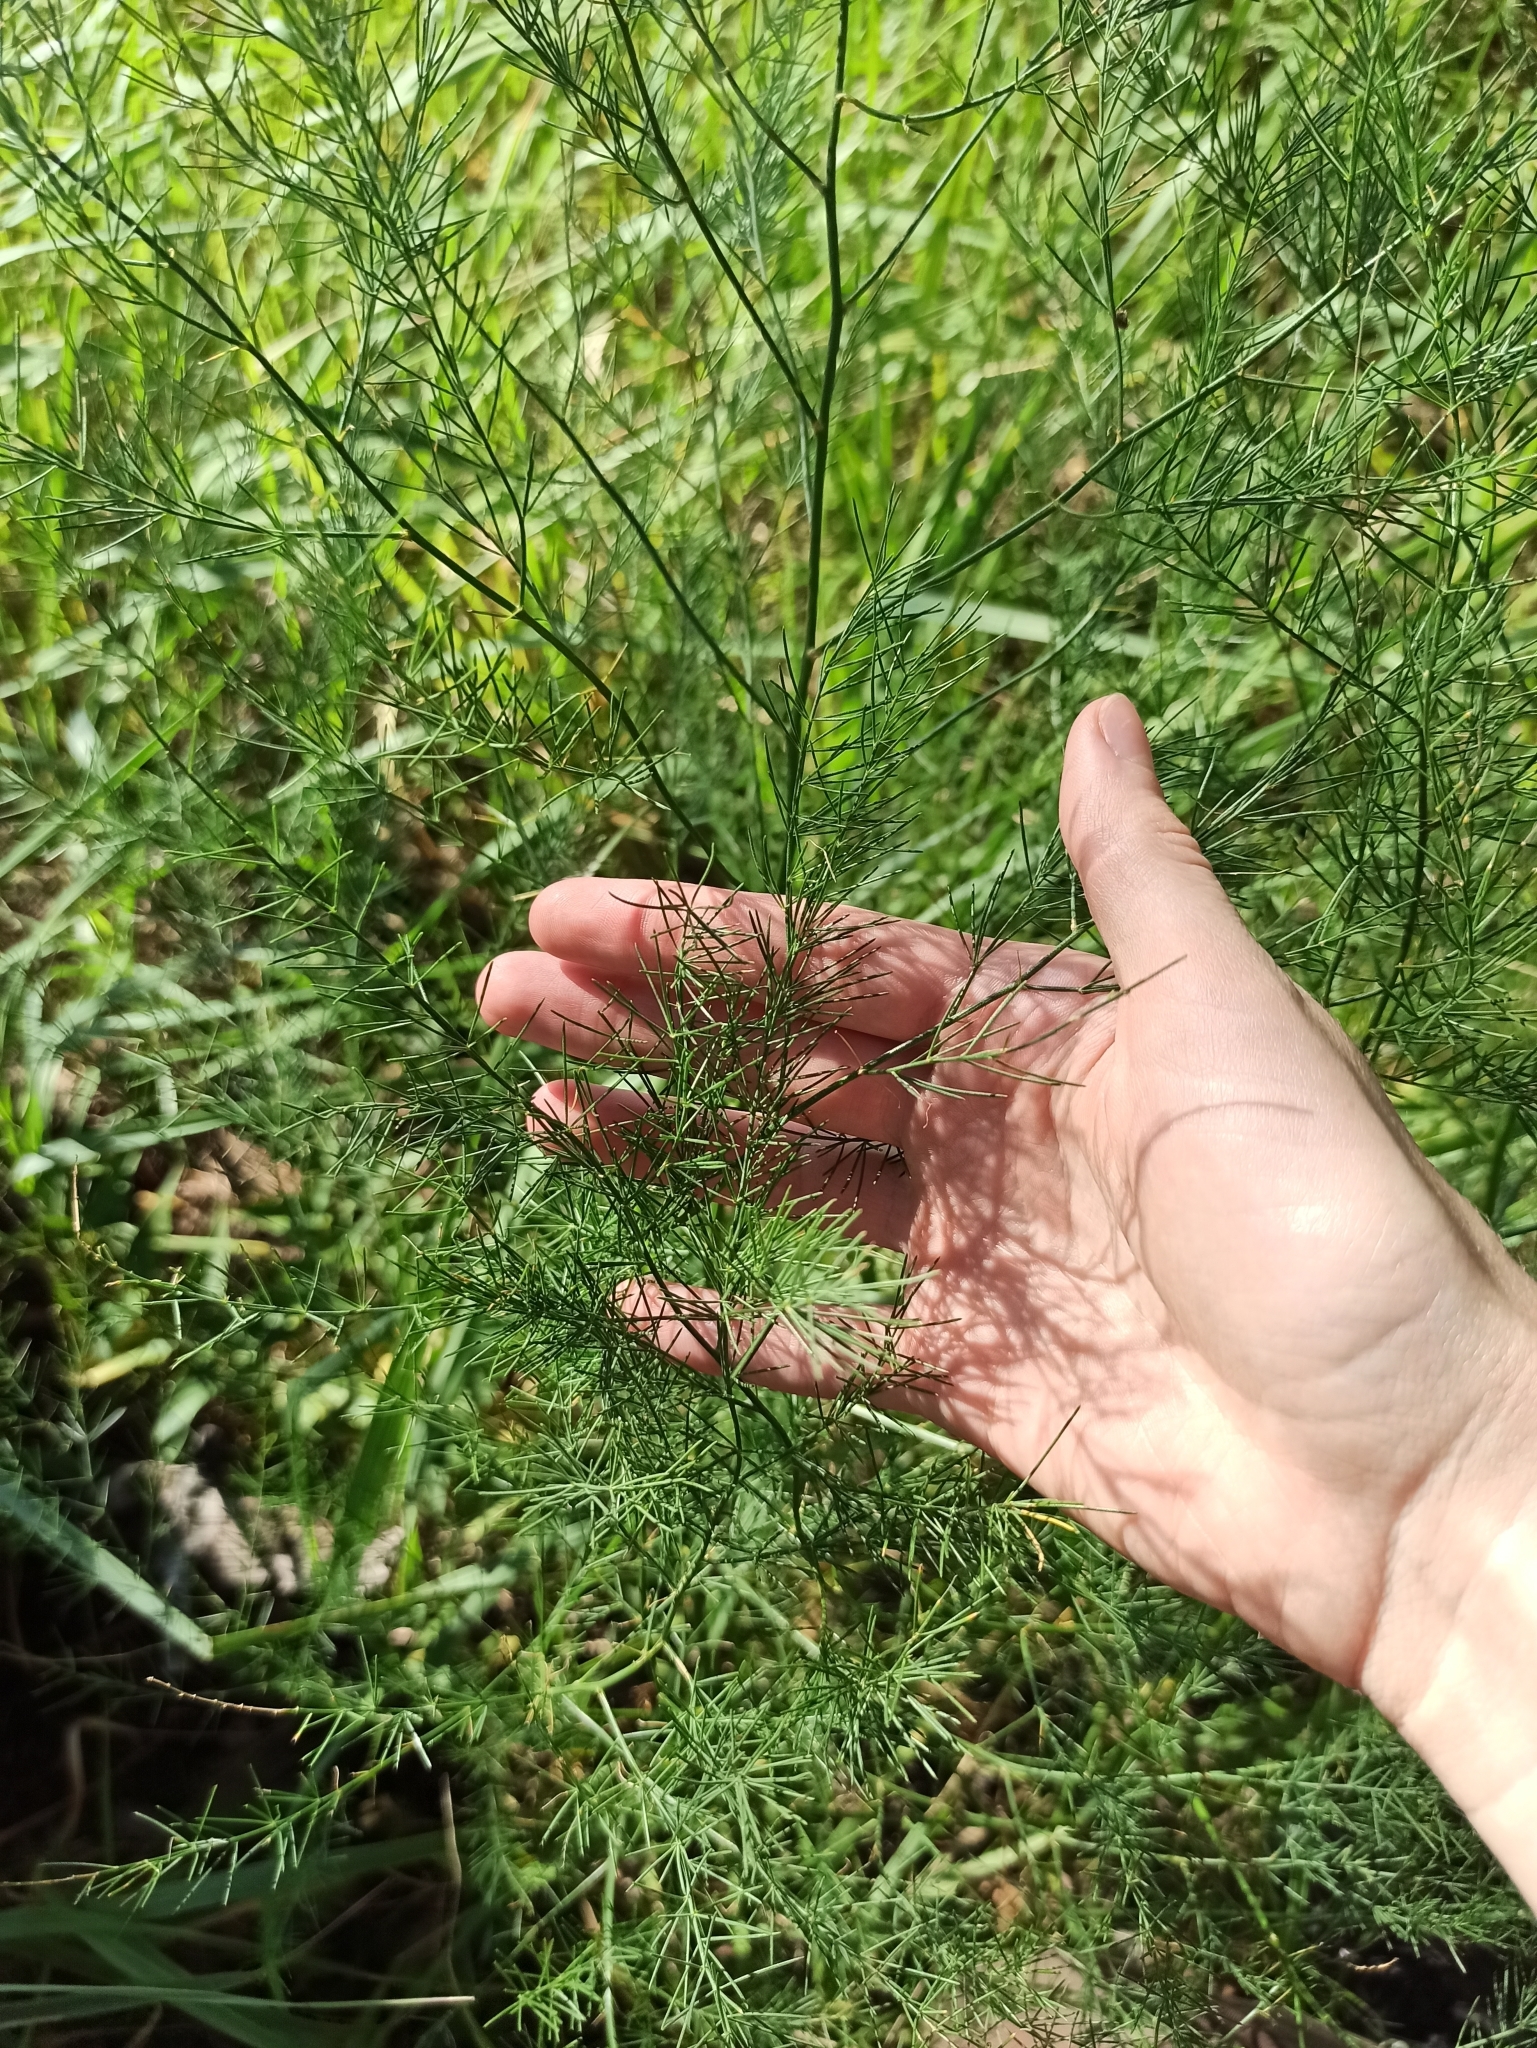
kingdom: Plantae
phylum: Tracheophyta
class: Liliopsida
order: Asparagales
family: Asparagaceae
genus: Asparagus
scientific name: Asparagus officinalis
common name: Garden asparagus
